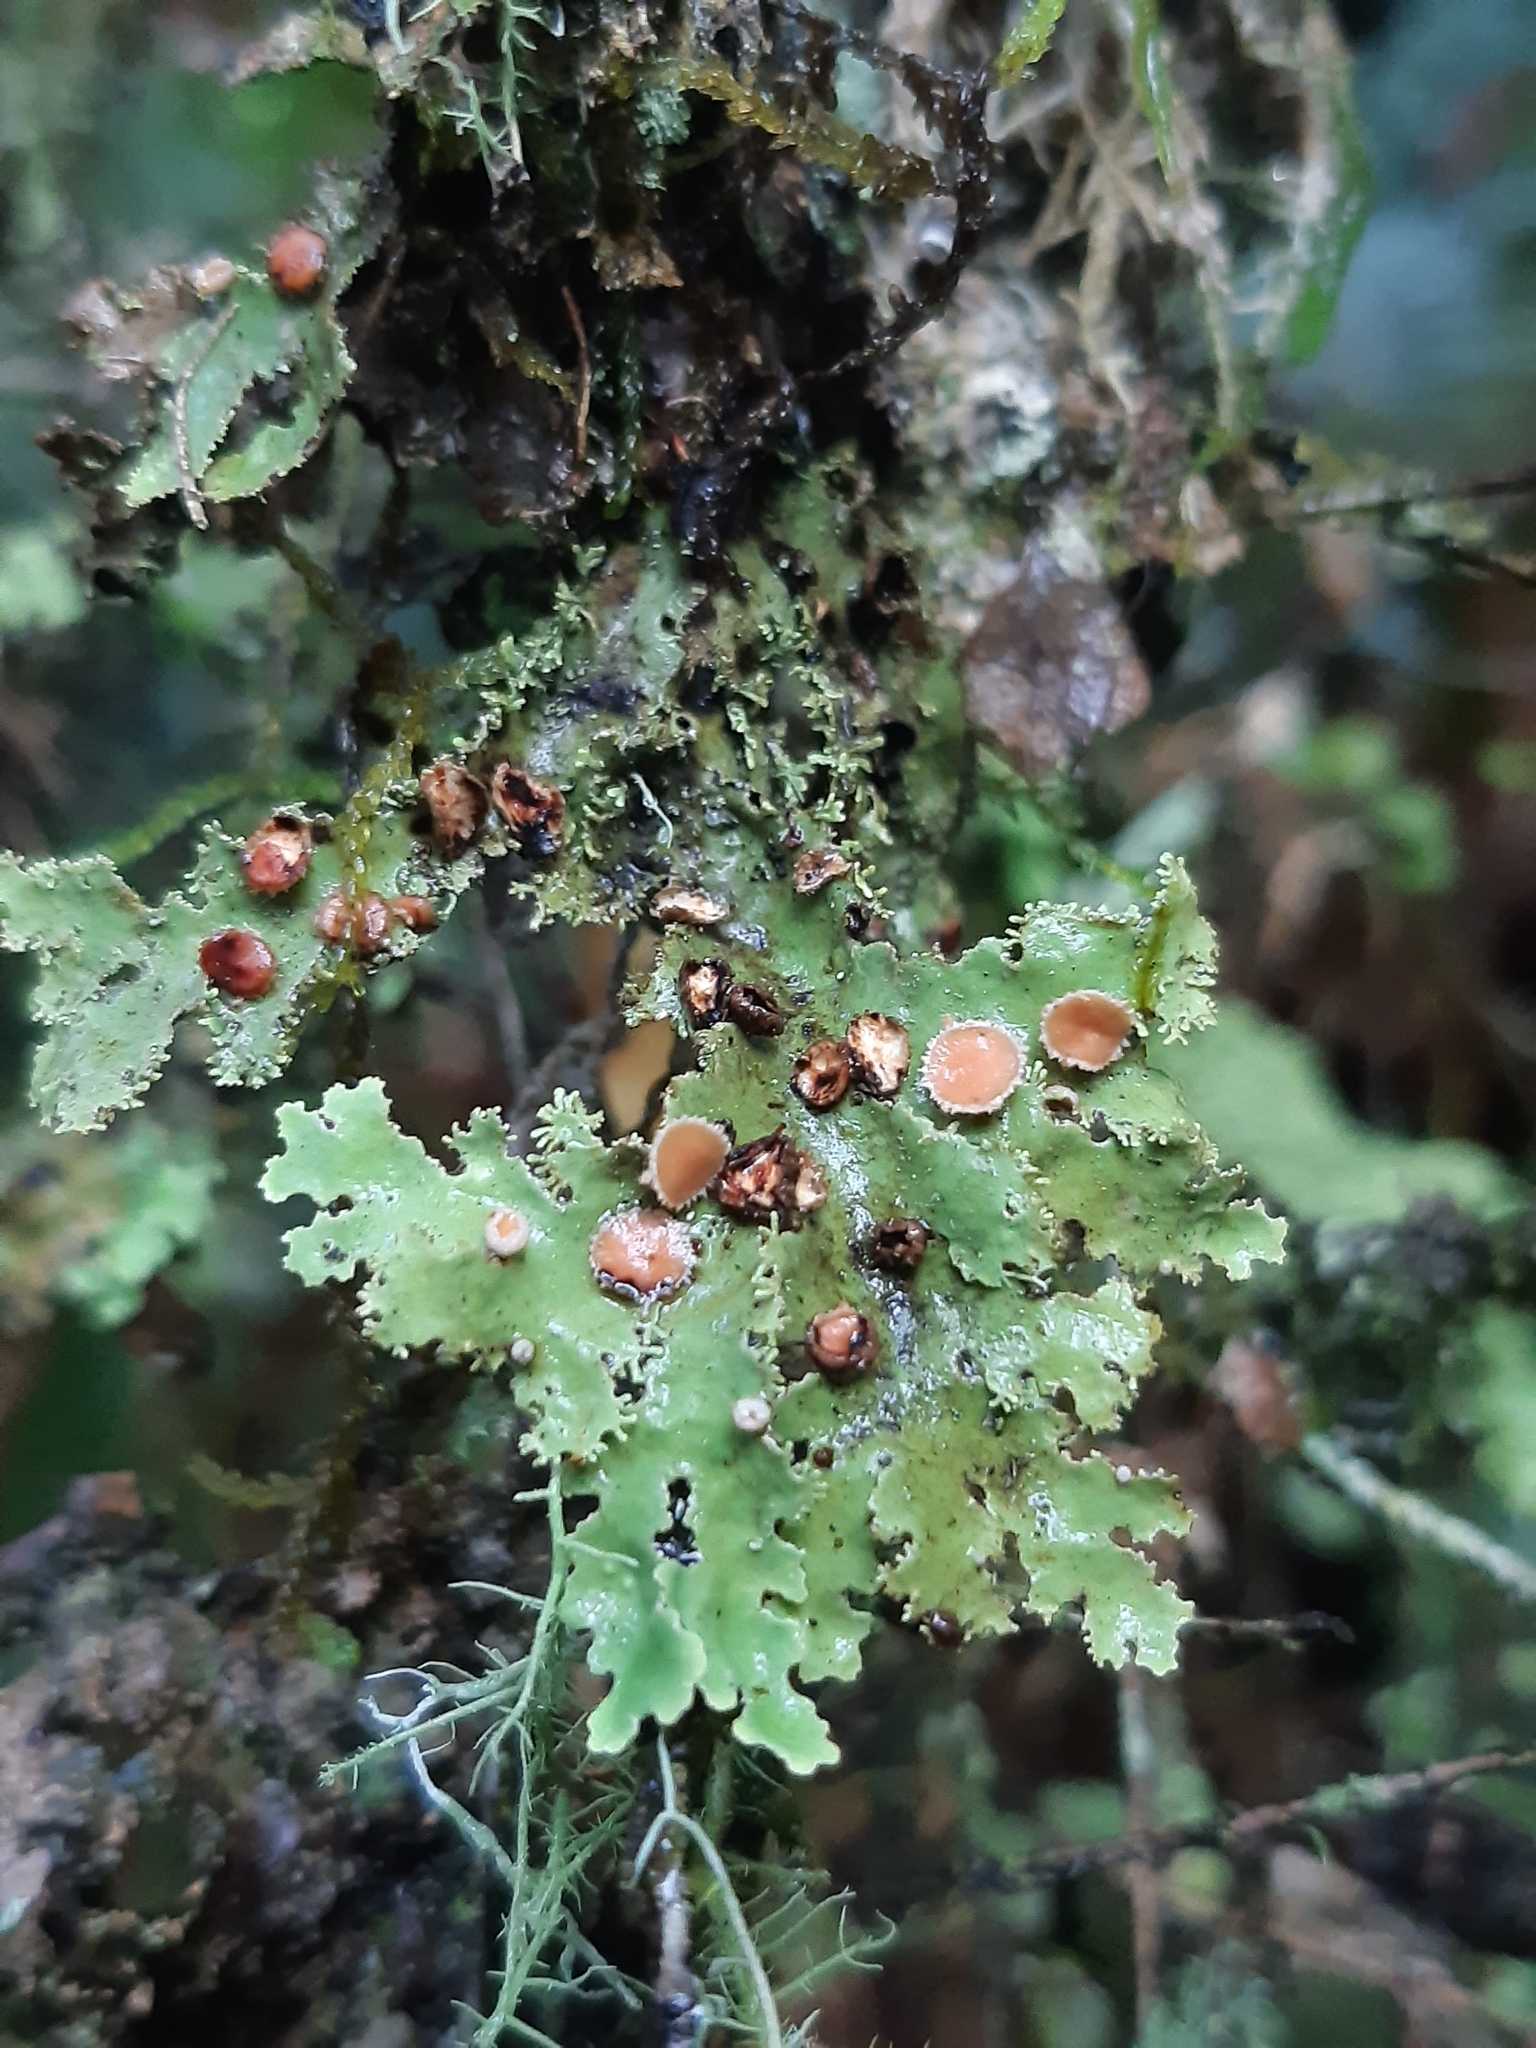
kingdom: Fungi
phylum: Ascomycota
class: Lecanoromycetes
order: Peltigerales
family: Lobariaceae
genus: Pseudocyphellaria
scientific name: Pseudocyphellaria glabra
